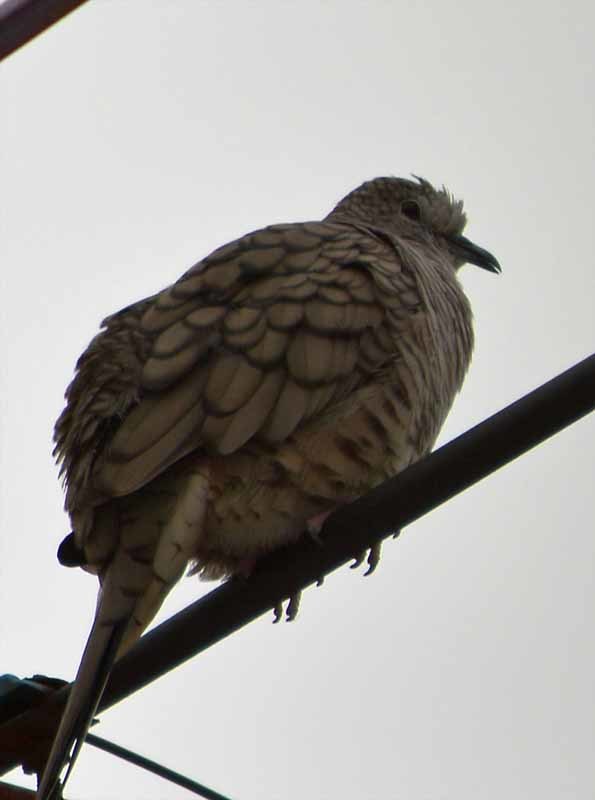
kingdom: Animalia
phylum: Chordata
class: Aves
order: Columbiformes
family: Columbidae
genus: Columbina
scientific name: Columbina inca
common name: Inca dove
